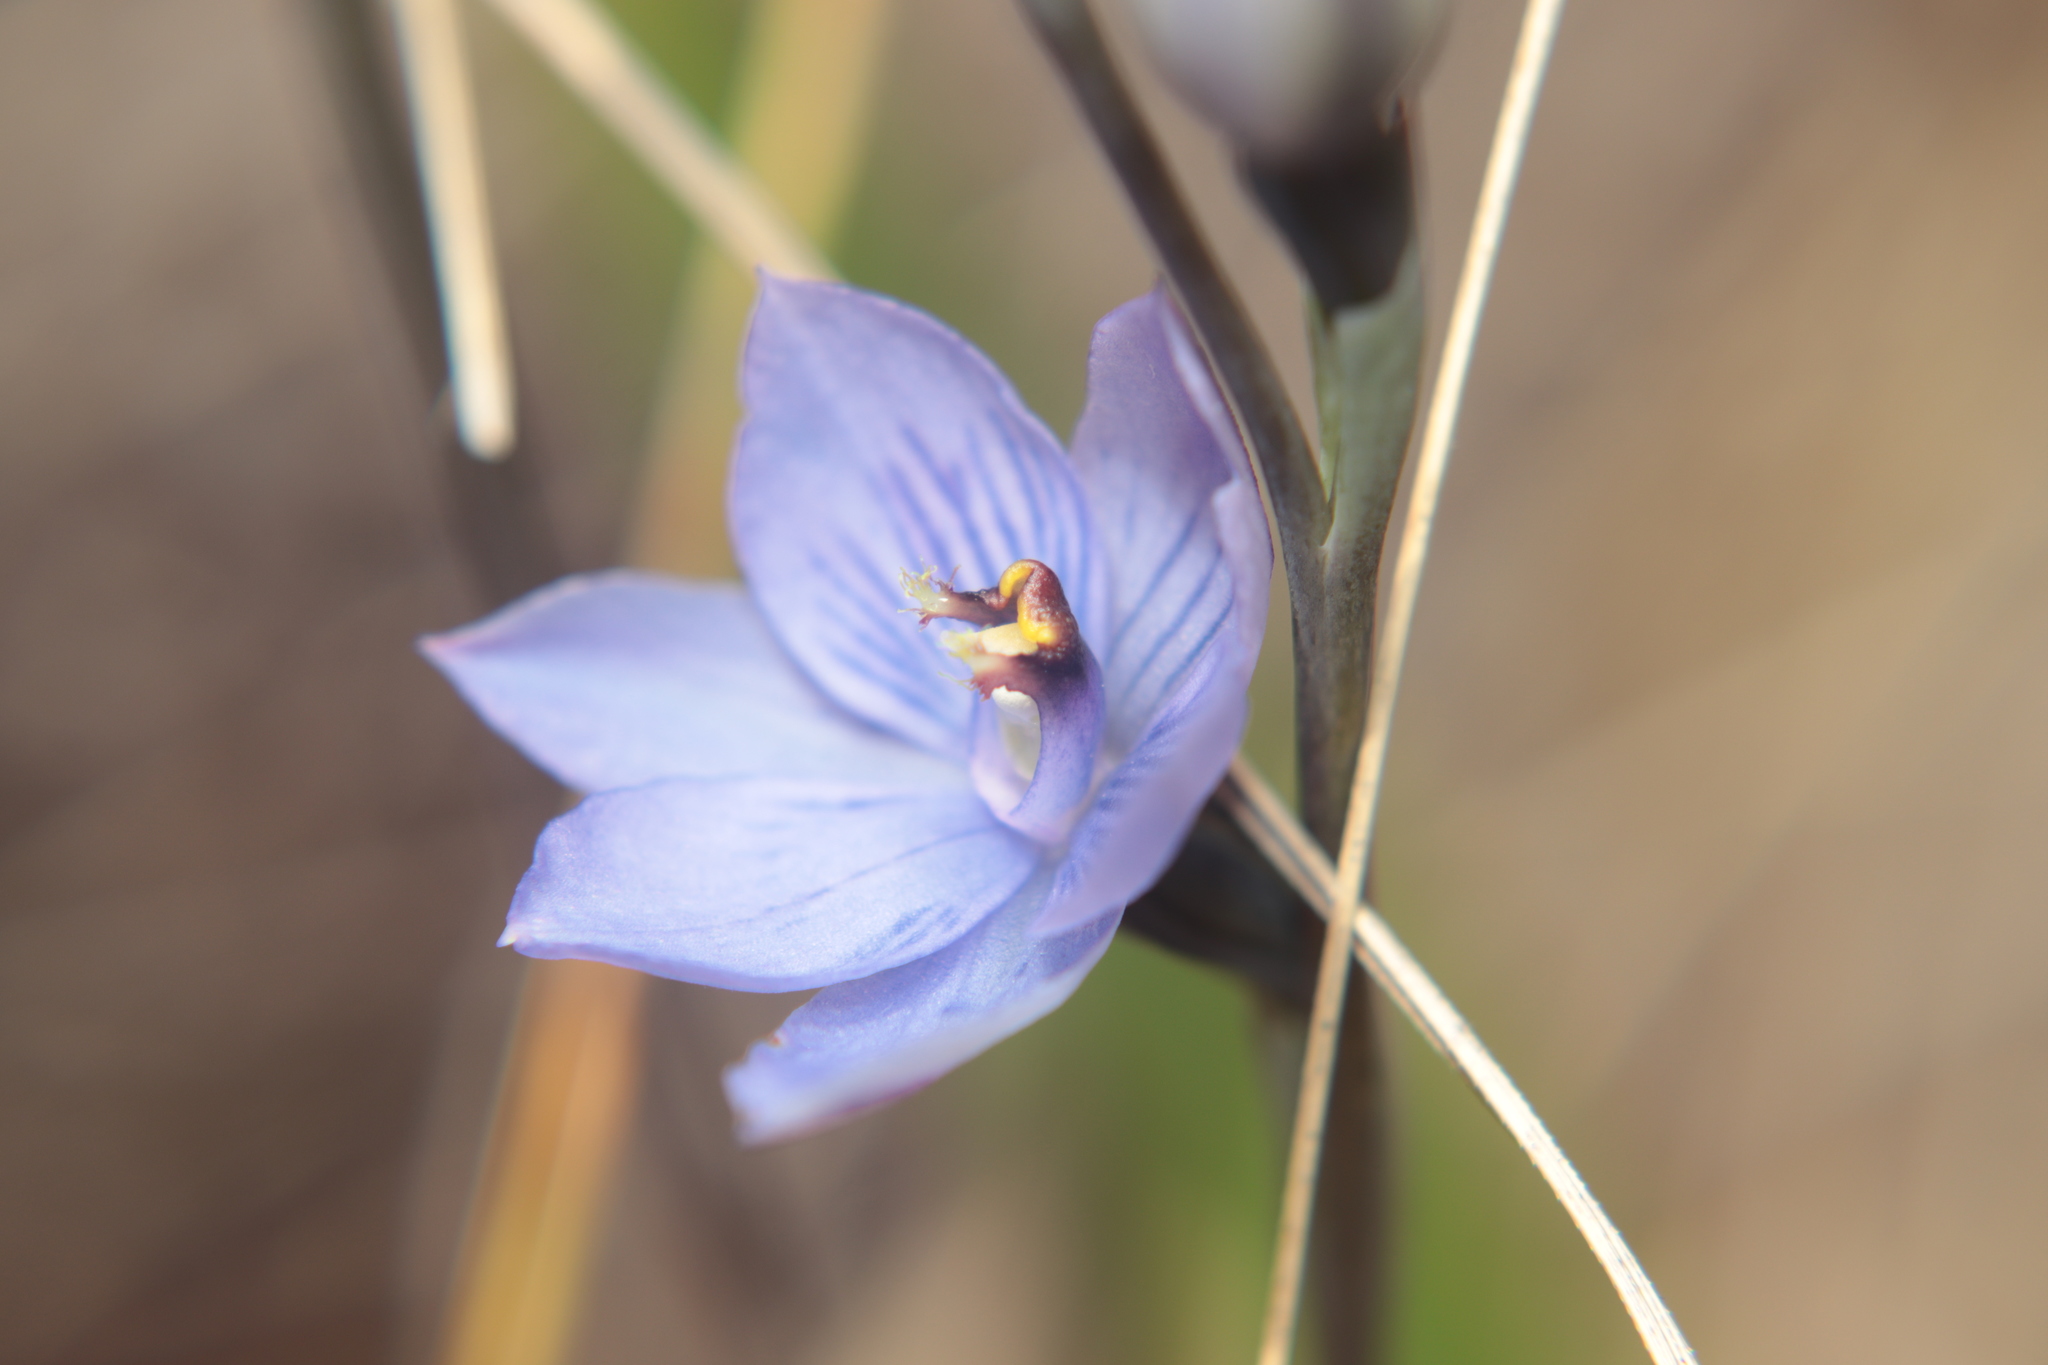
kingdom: Plantae
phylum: Tracheophyta
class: Liliopsida
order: Asparagales
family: Orchidaceae
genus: Thelymitra
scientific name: Thelymitra pulchella
